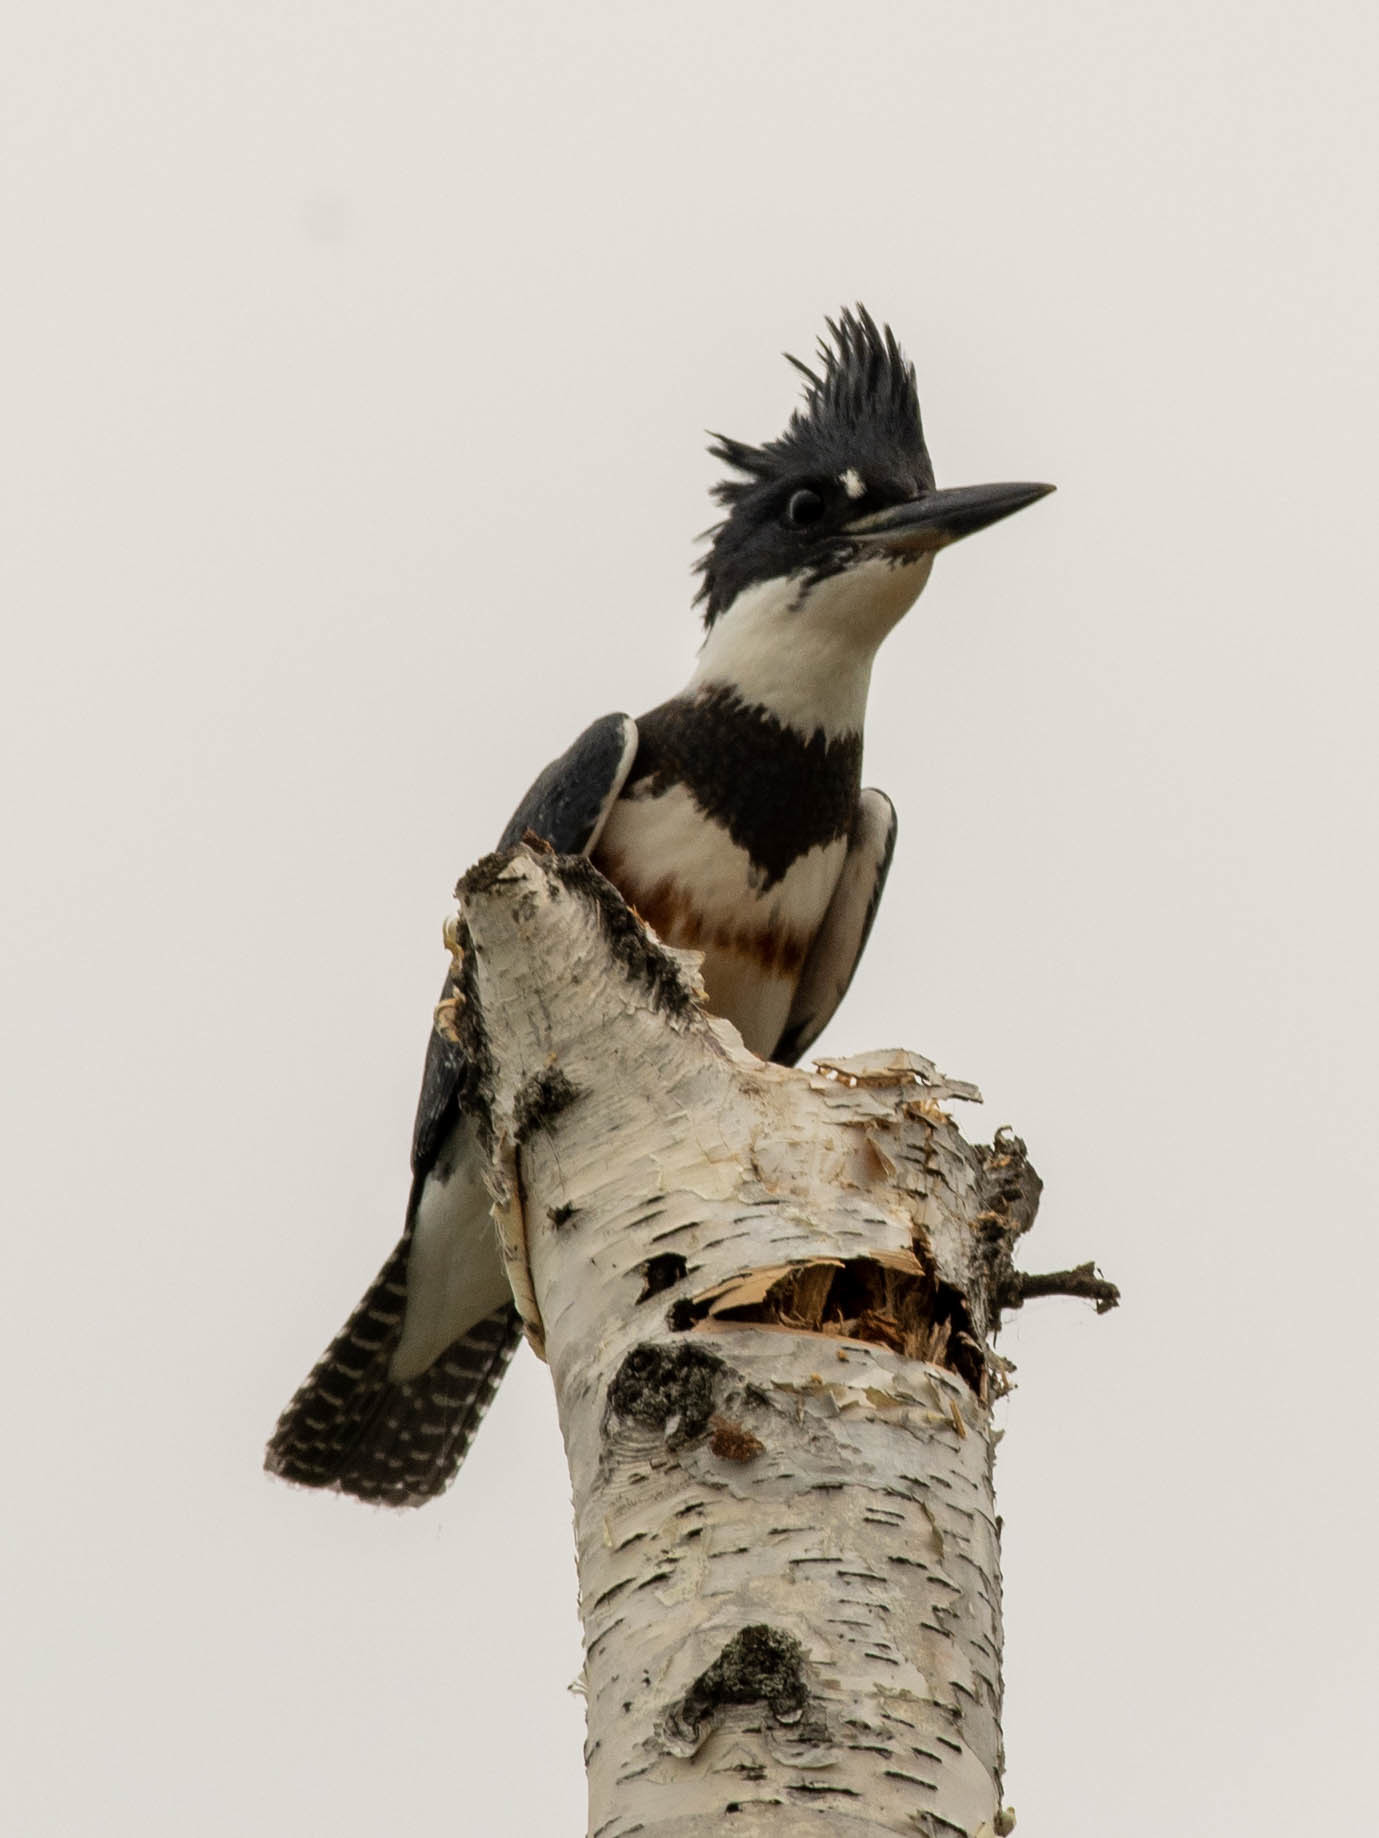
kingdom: Animalia
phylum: Chordata
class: Aves
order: Coraciiformes
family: Alcedinidae
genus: Megaceryle
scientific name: Megaceryle alcyon
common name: Belted kingfisher
